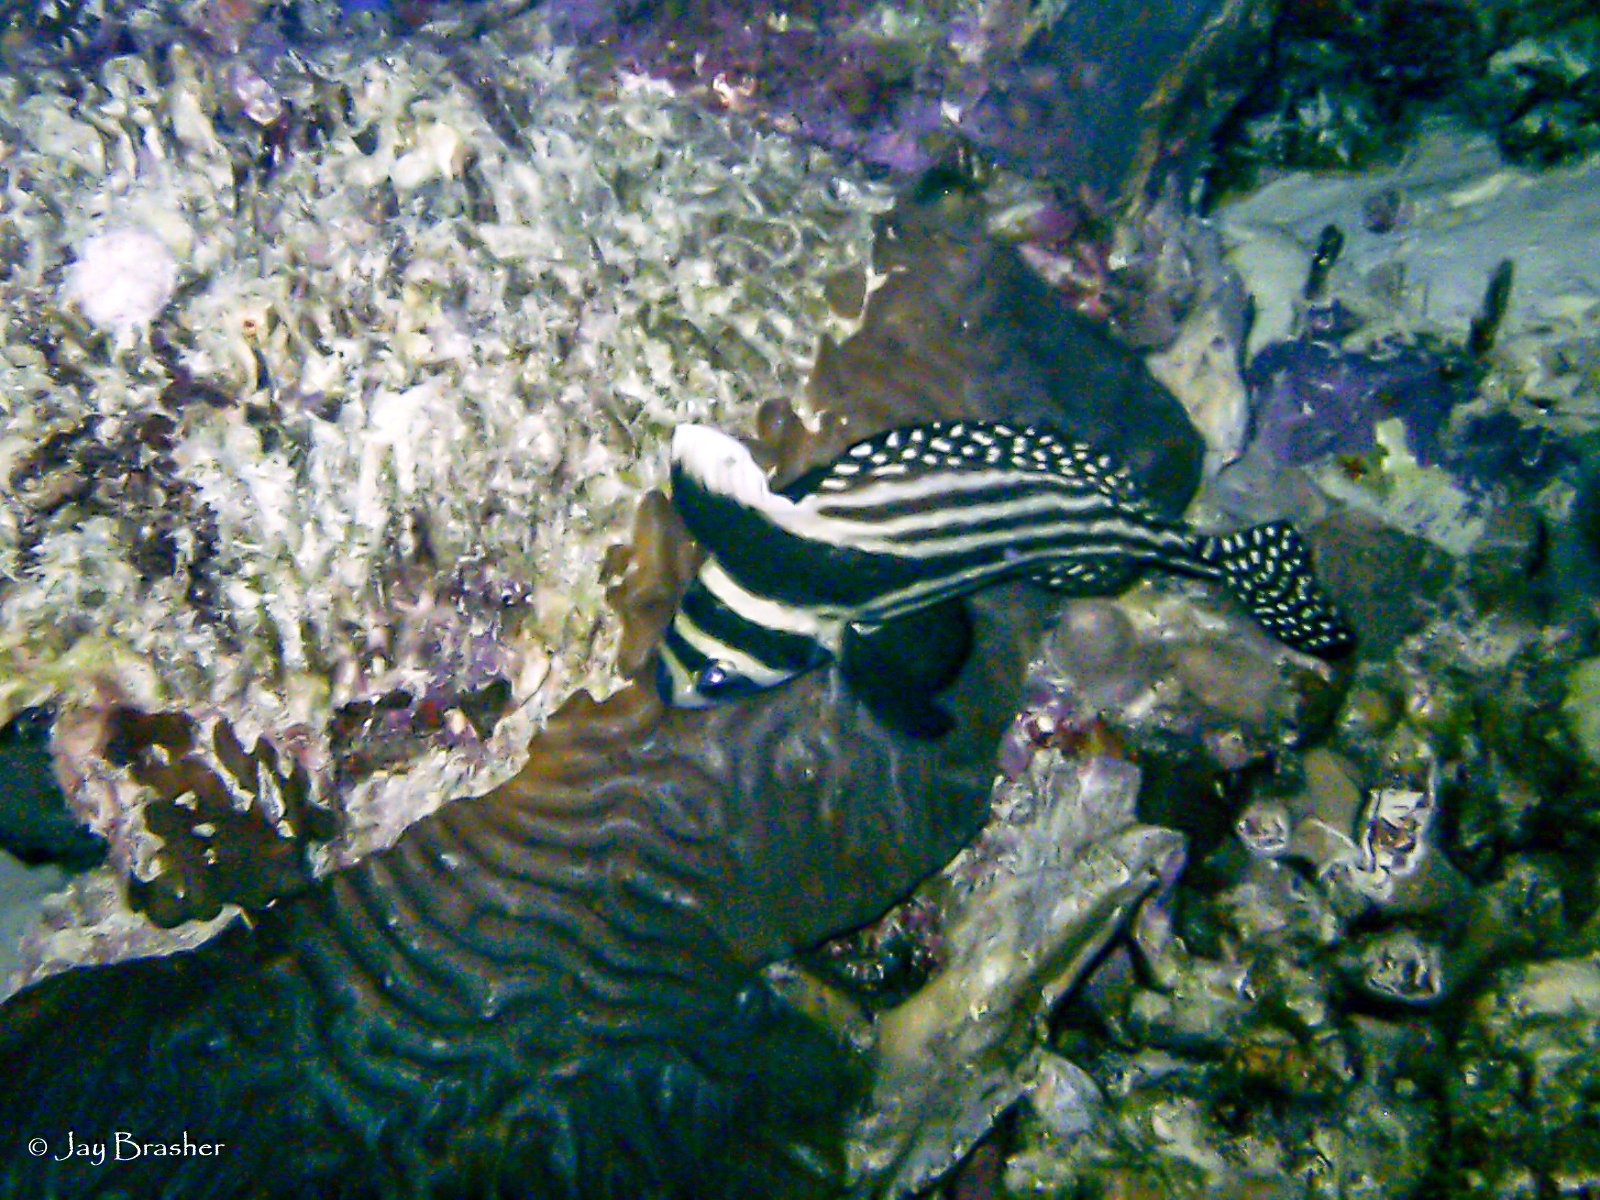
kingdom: Animalia
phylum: Chordata
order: Perciformes
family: Sciaenidae
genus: Equetus
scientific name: Equetus punctatus
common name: Spotted drum
